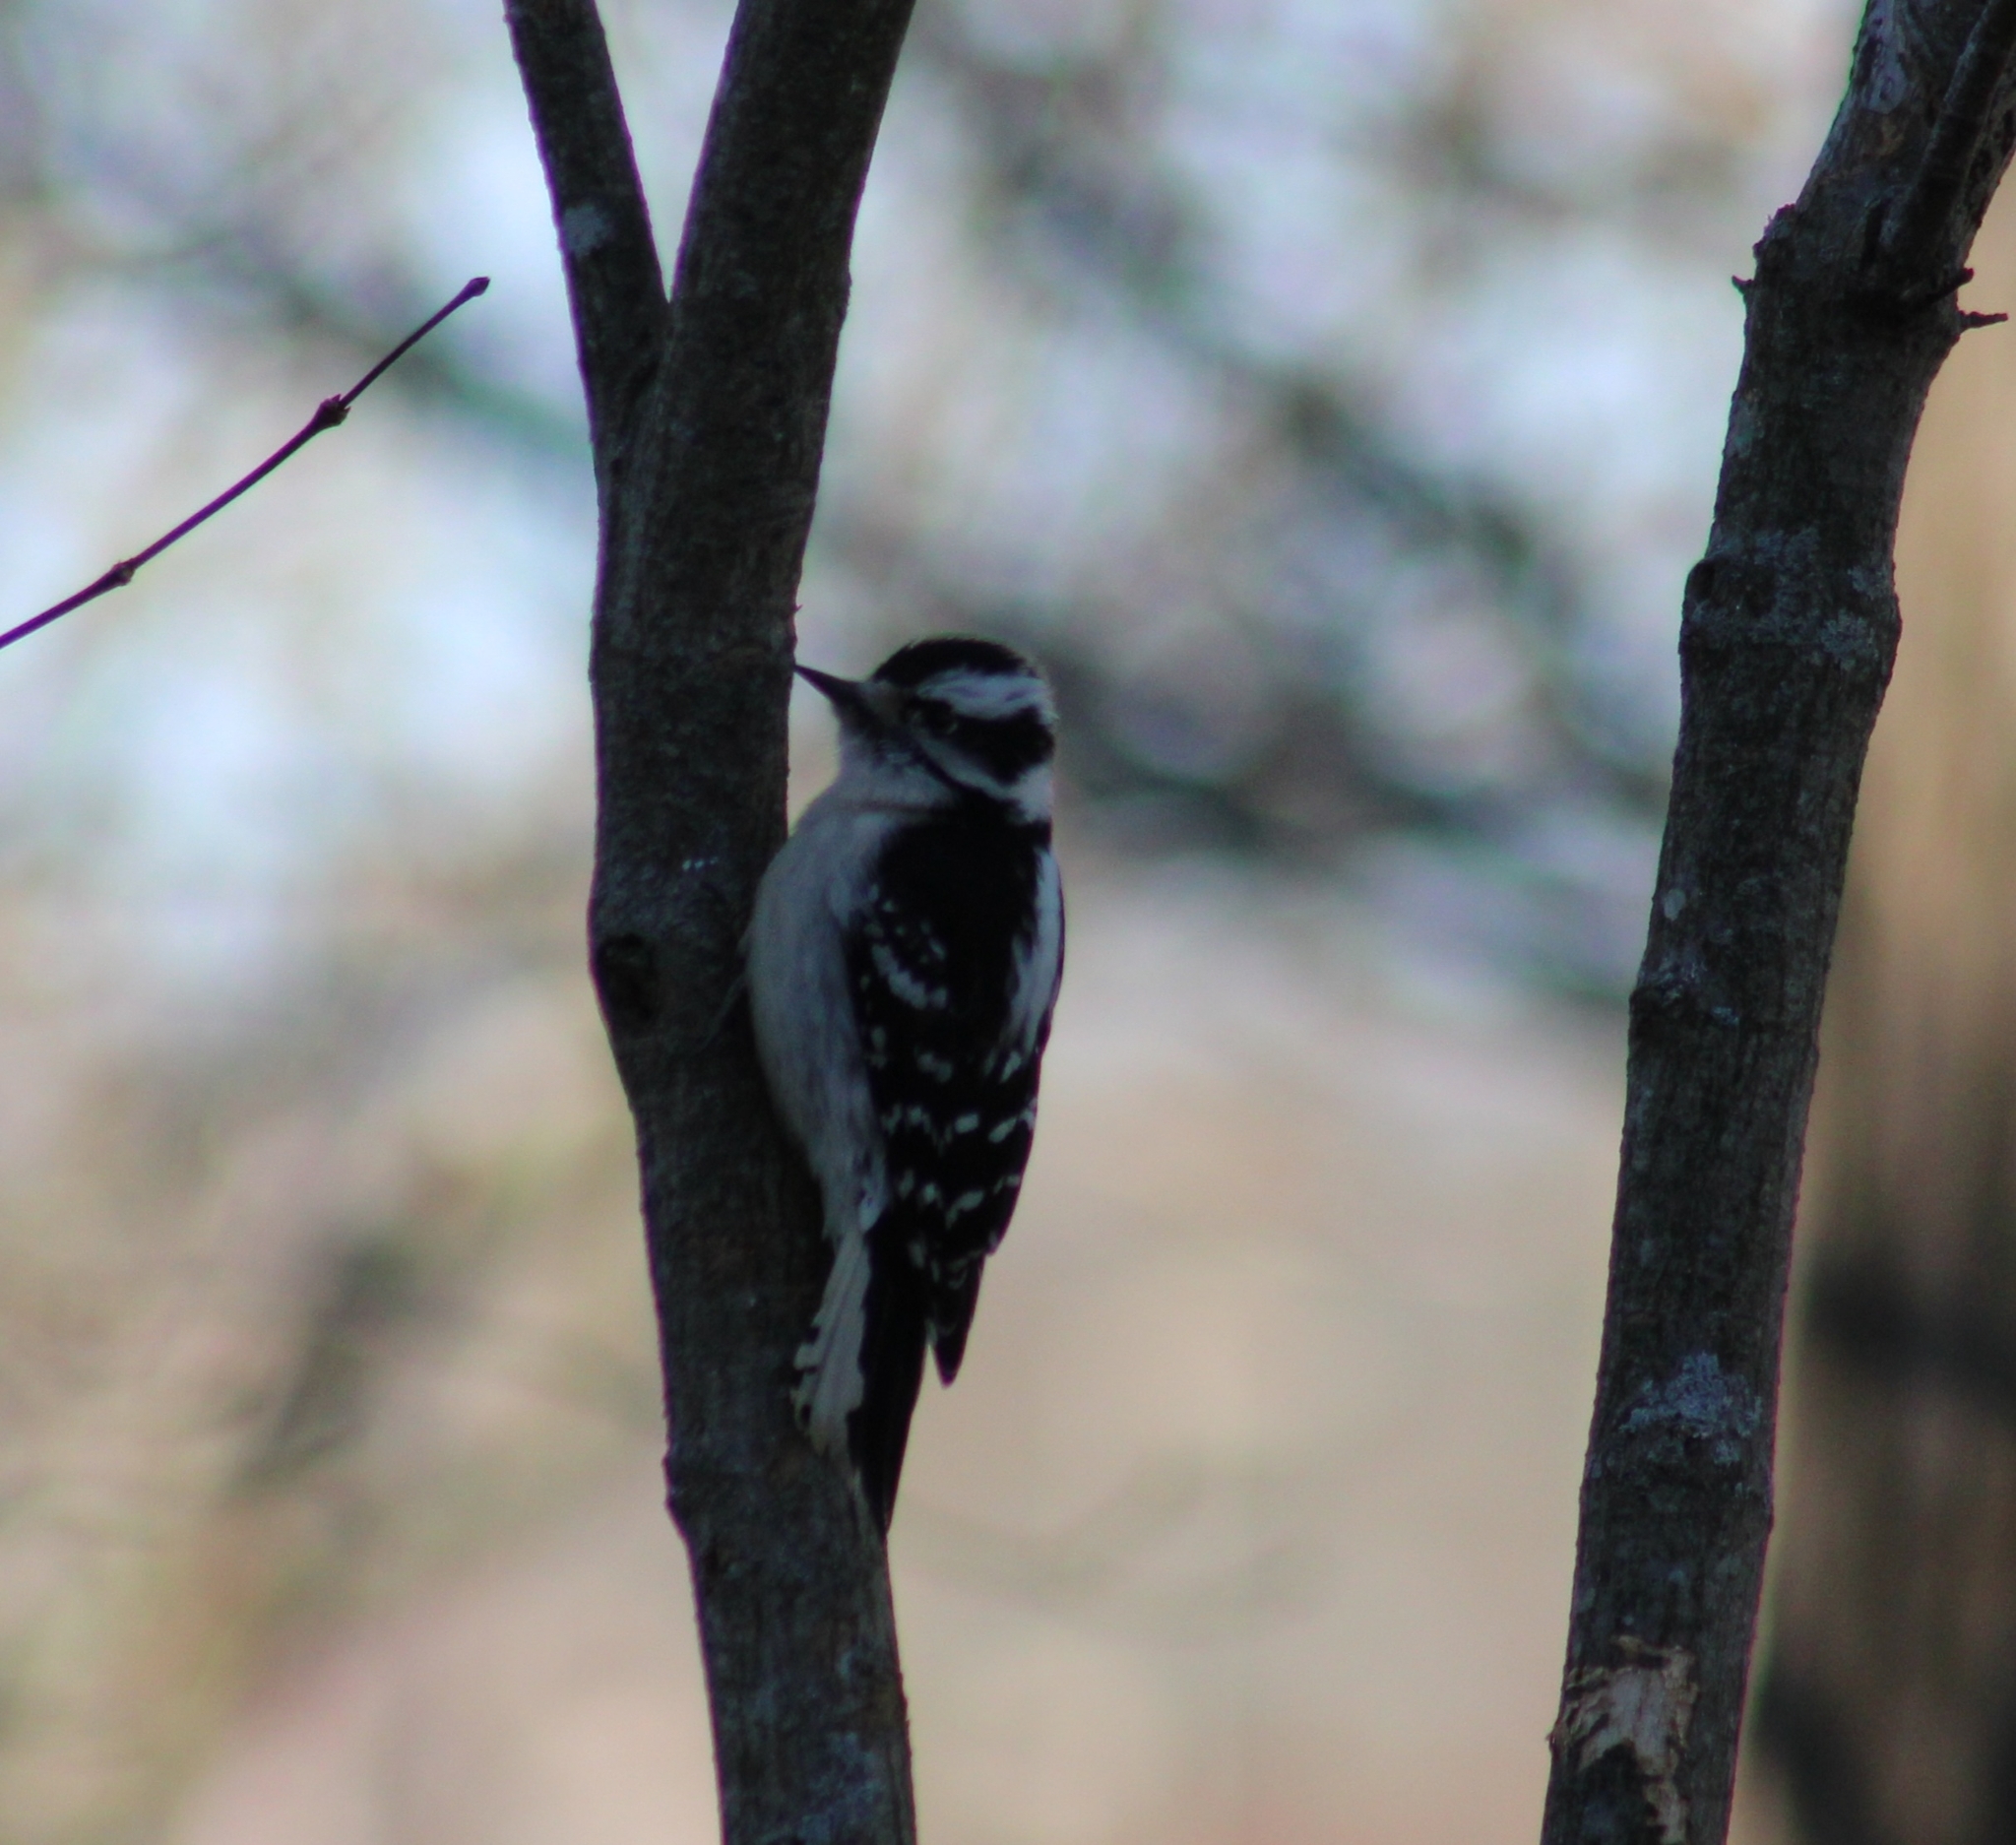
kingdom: Animalia
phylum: Chordata
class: Aves
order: Piciformes
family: Picidae
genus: Dryobates
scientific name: Dryobates pubescens
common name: Downy woodpecker
